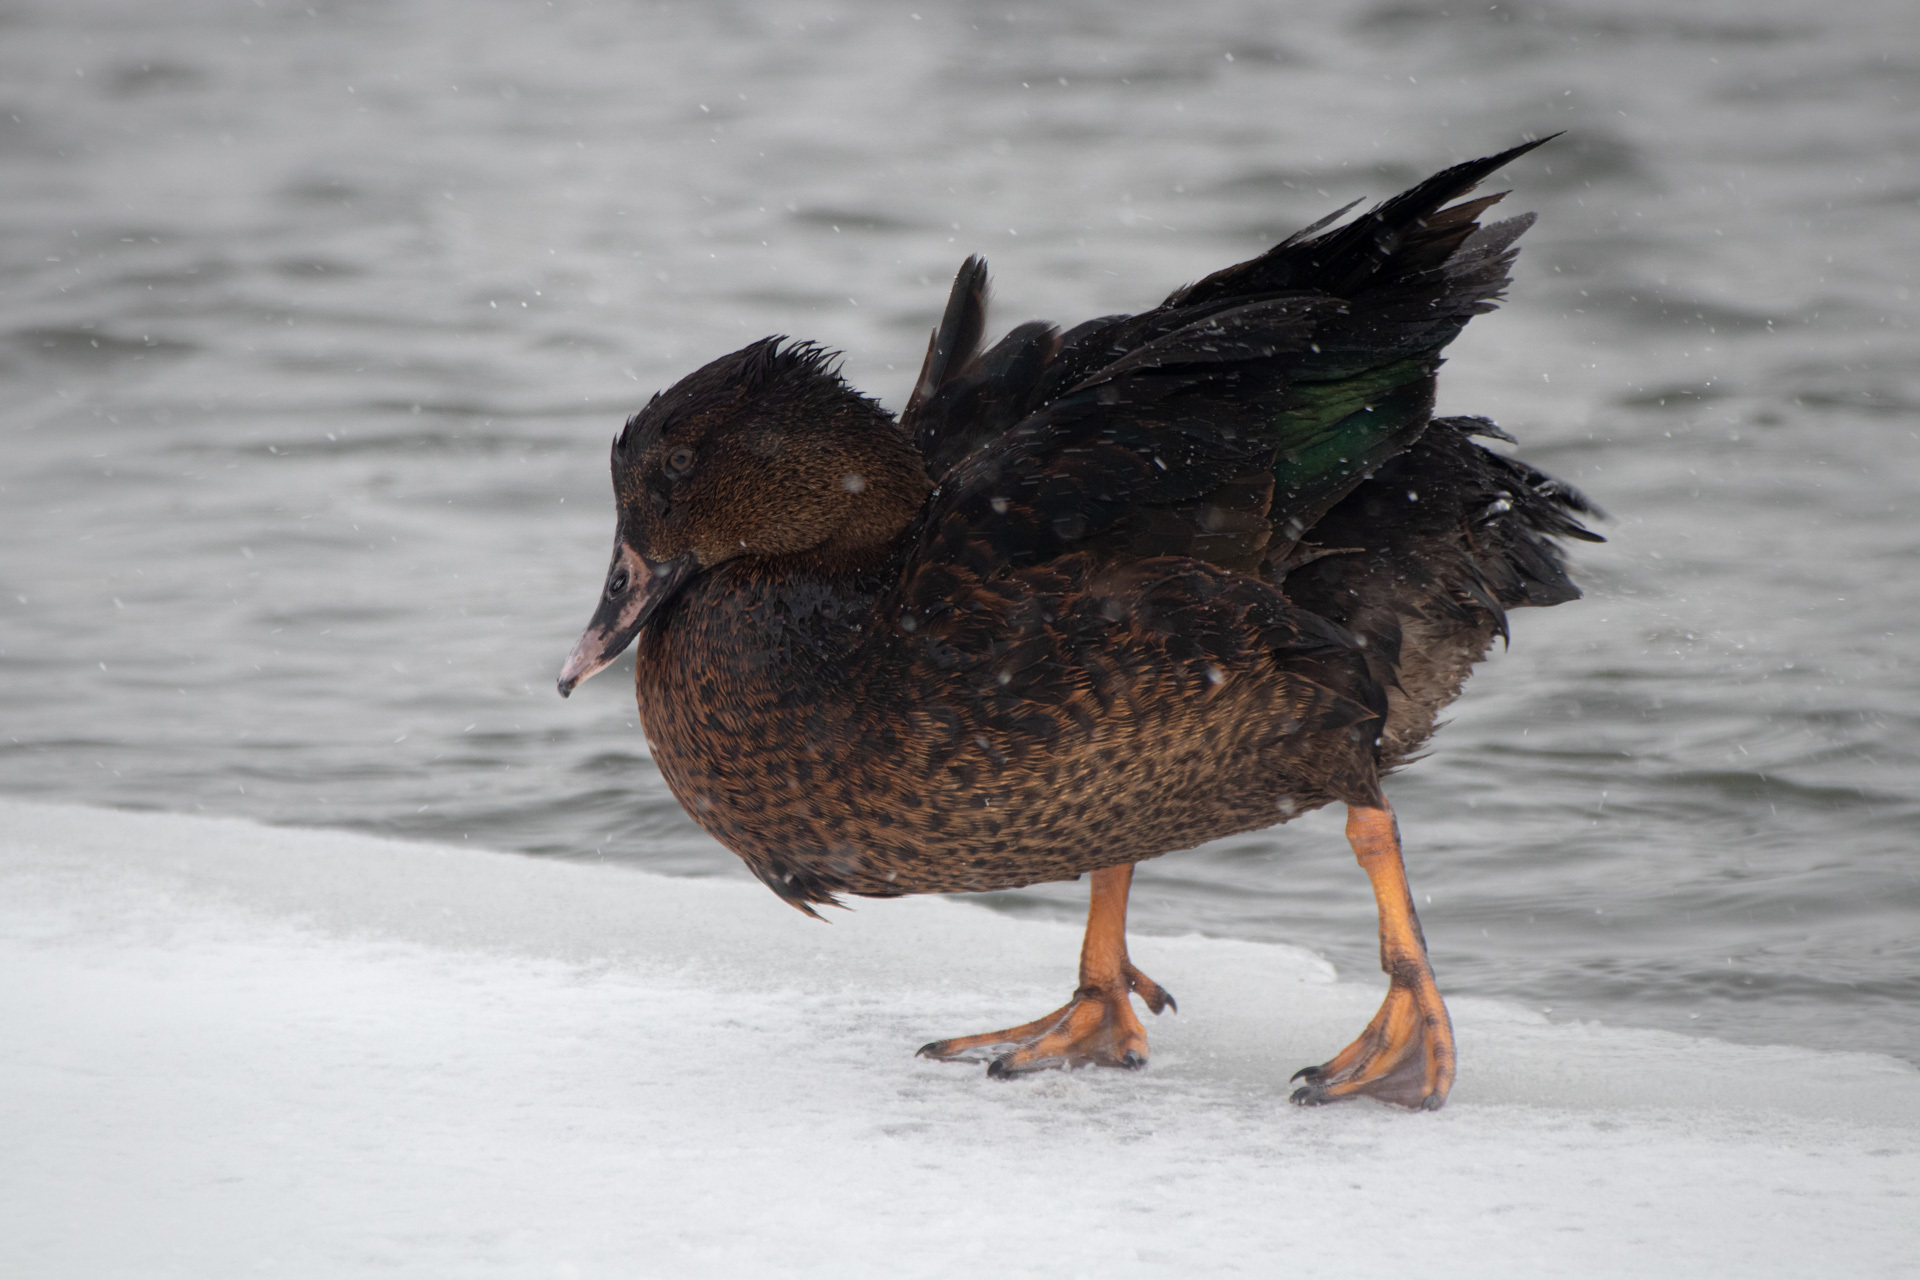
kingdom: Animalia
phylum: Chordata
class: Aves
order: Anseriformes
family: Anatidae
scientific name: Anatidae
